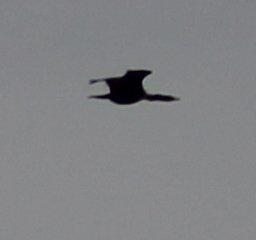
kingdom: Animalia
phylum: Chordata
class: Aves
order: Suliformes
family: Phalacrocoracidae
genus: Phalacrocorax
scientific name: Phalacrocorax auritus
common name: Double-crested cormorant
